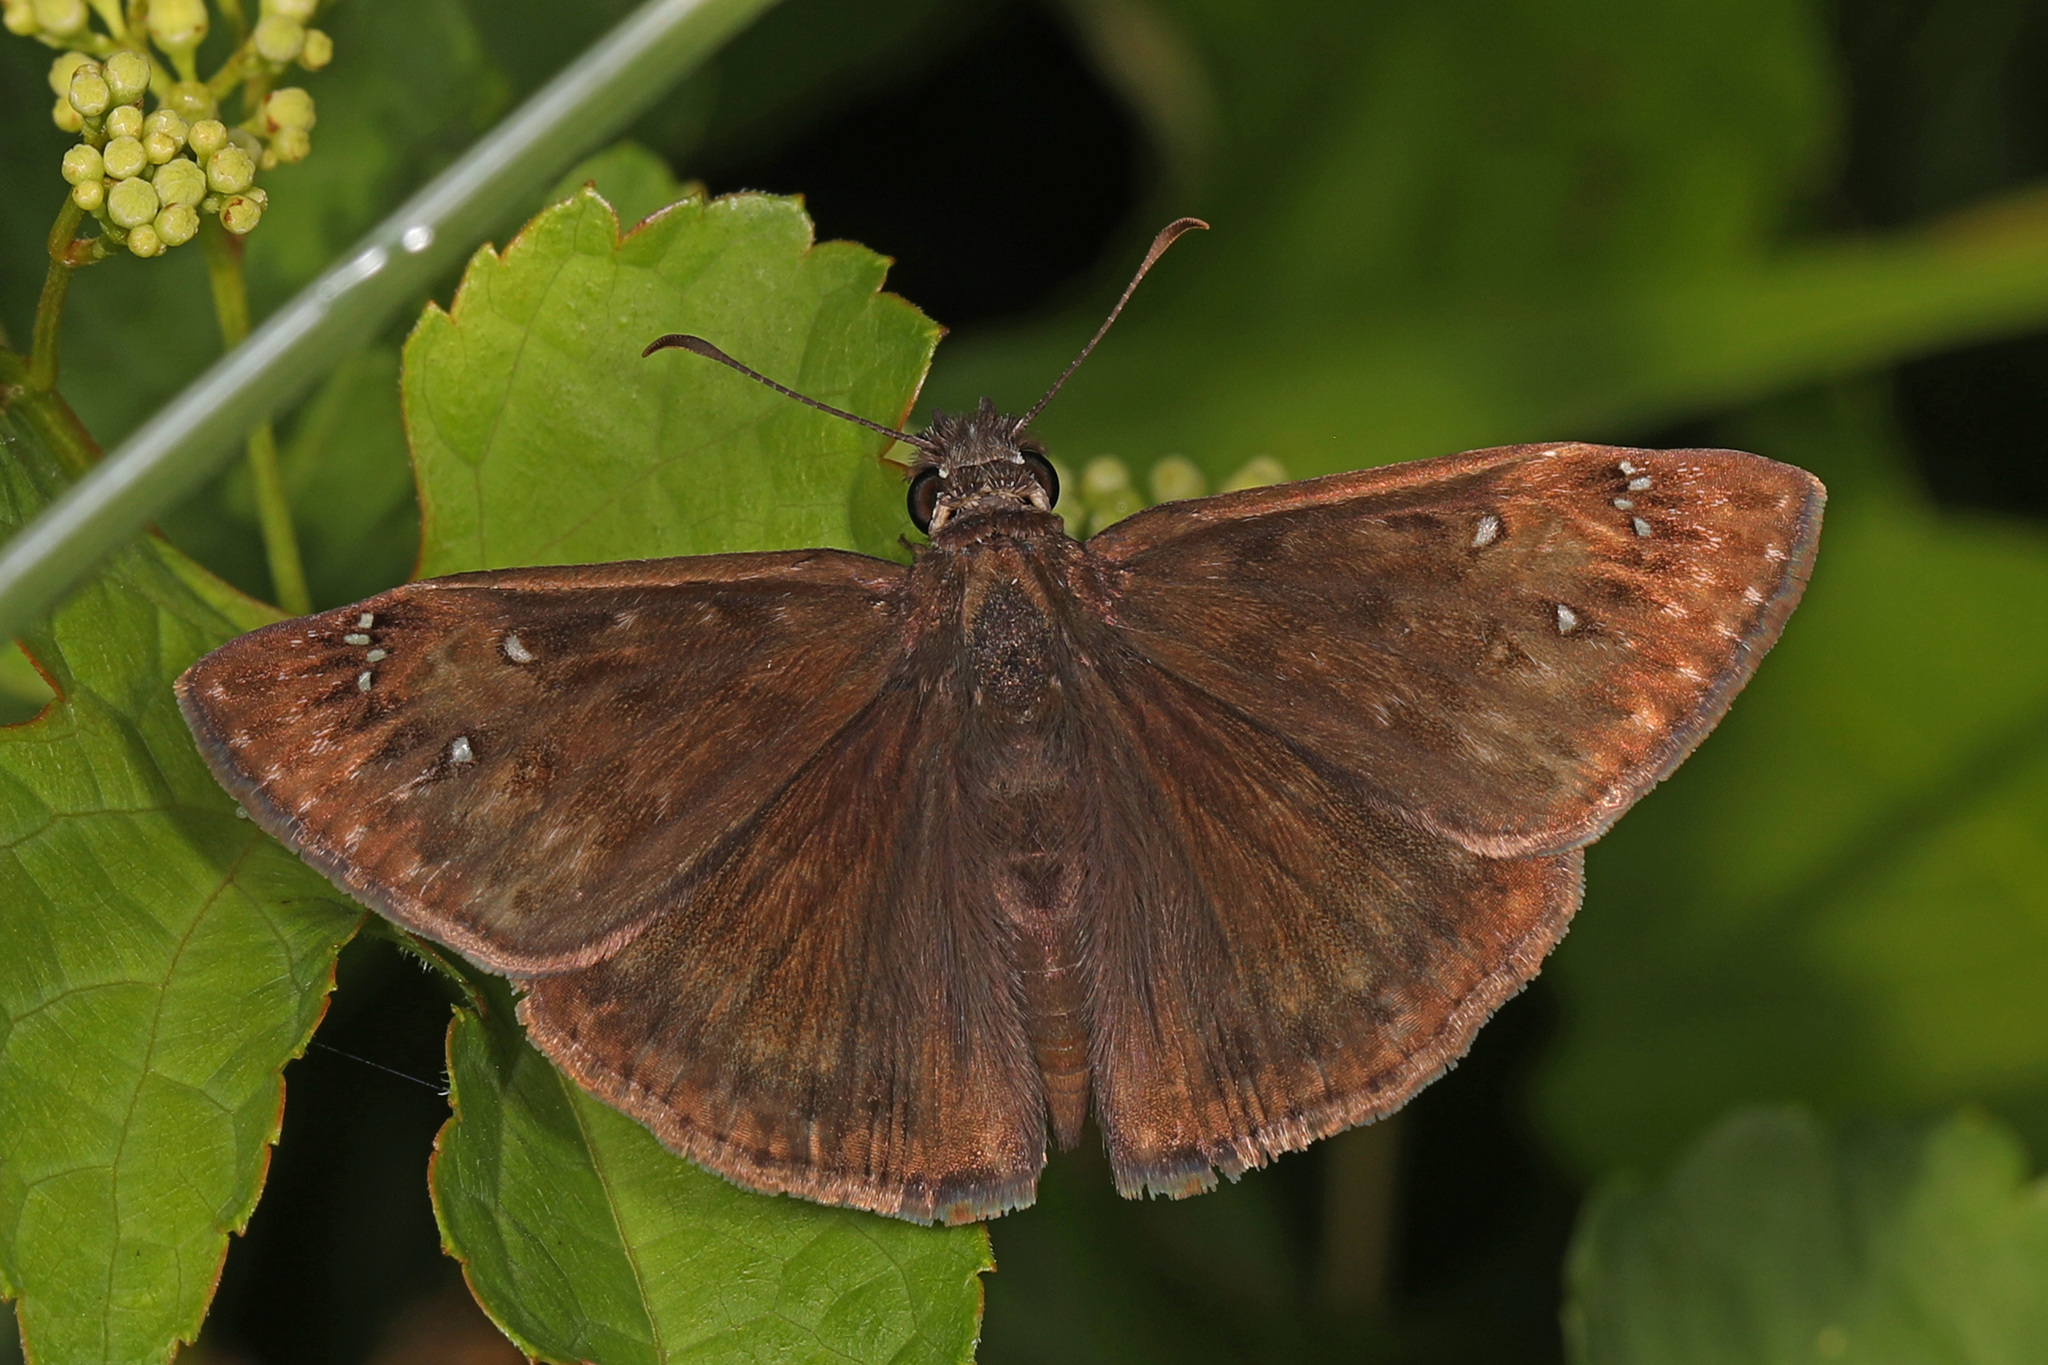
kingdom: Animalia
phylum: Arthropoda
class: Insecta
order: Lepidoptera
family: Hesperiidae
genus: Erynnis
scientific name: Erynnis horatius
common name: Horace's duskywing
